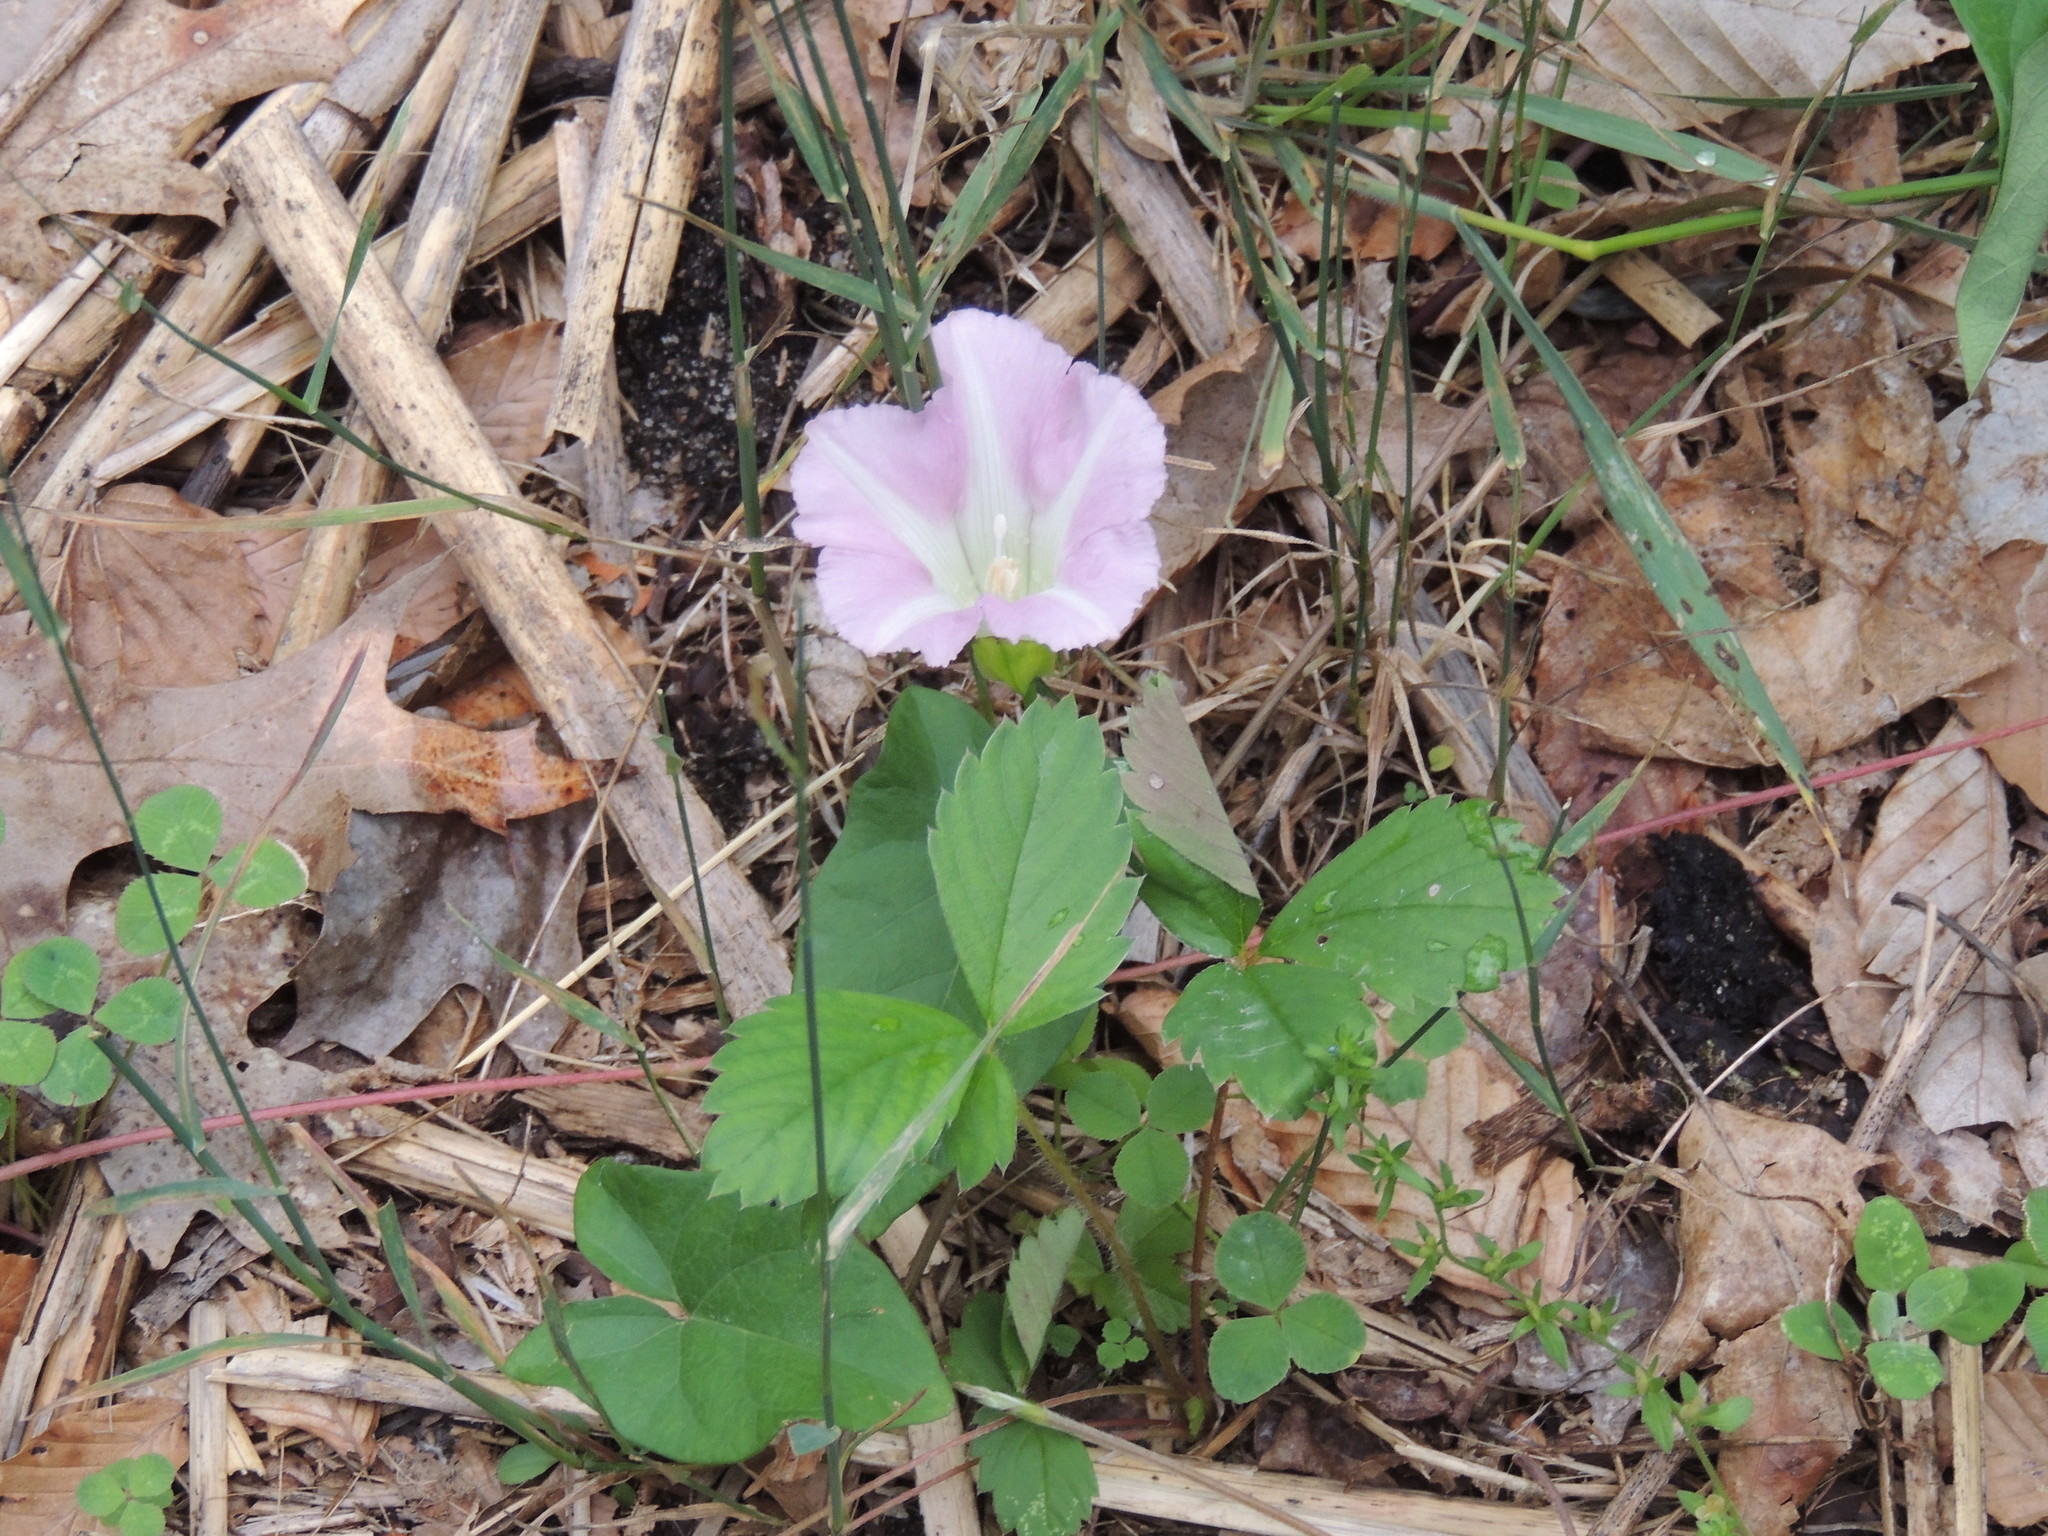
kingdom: Plantae
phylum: Tracheophyta
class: Magnoliopsida
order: Solanales
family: Convolvulaceae
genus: Calystegia
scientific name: Calystegia sepium
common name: Hedge bindweed
